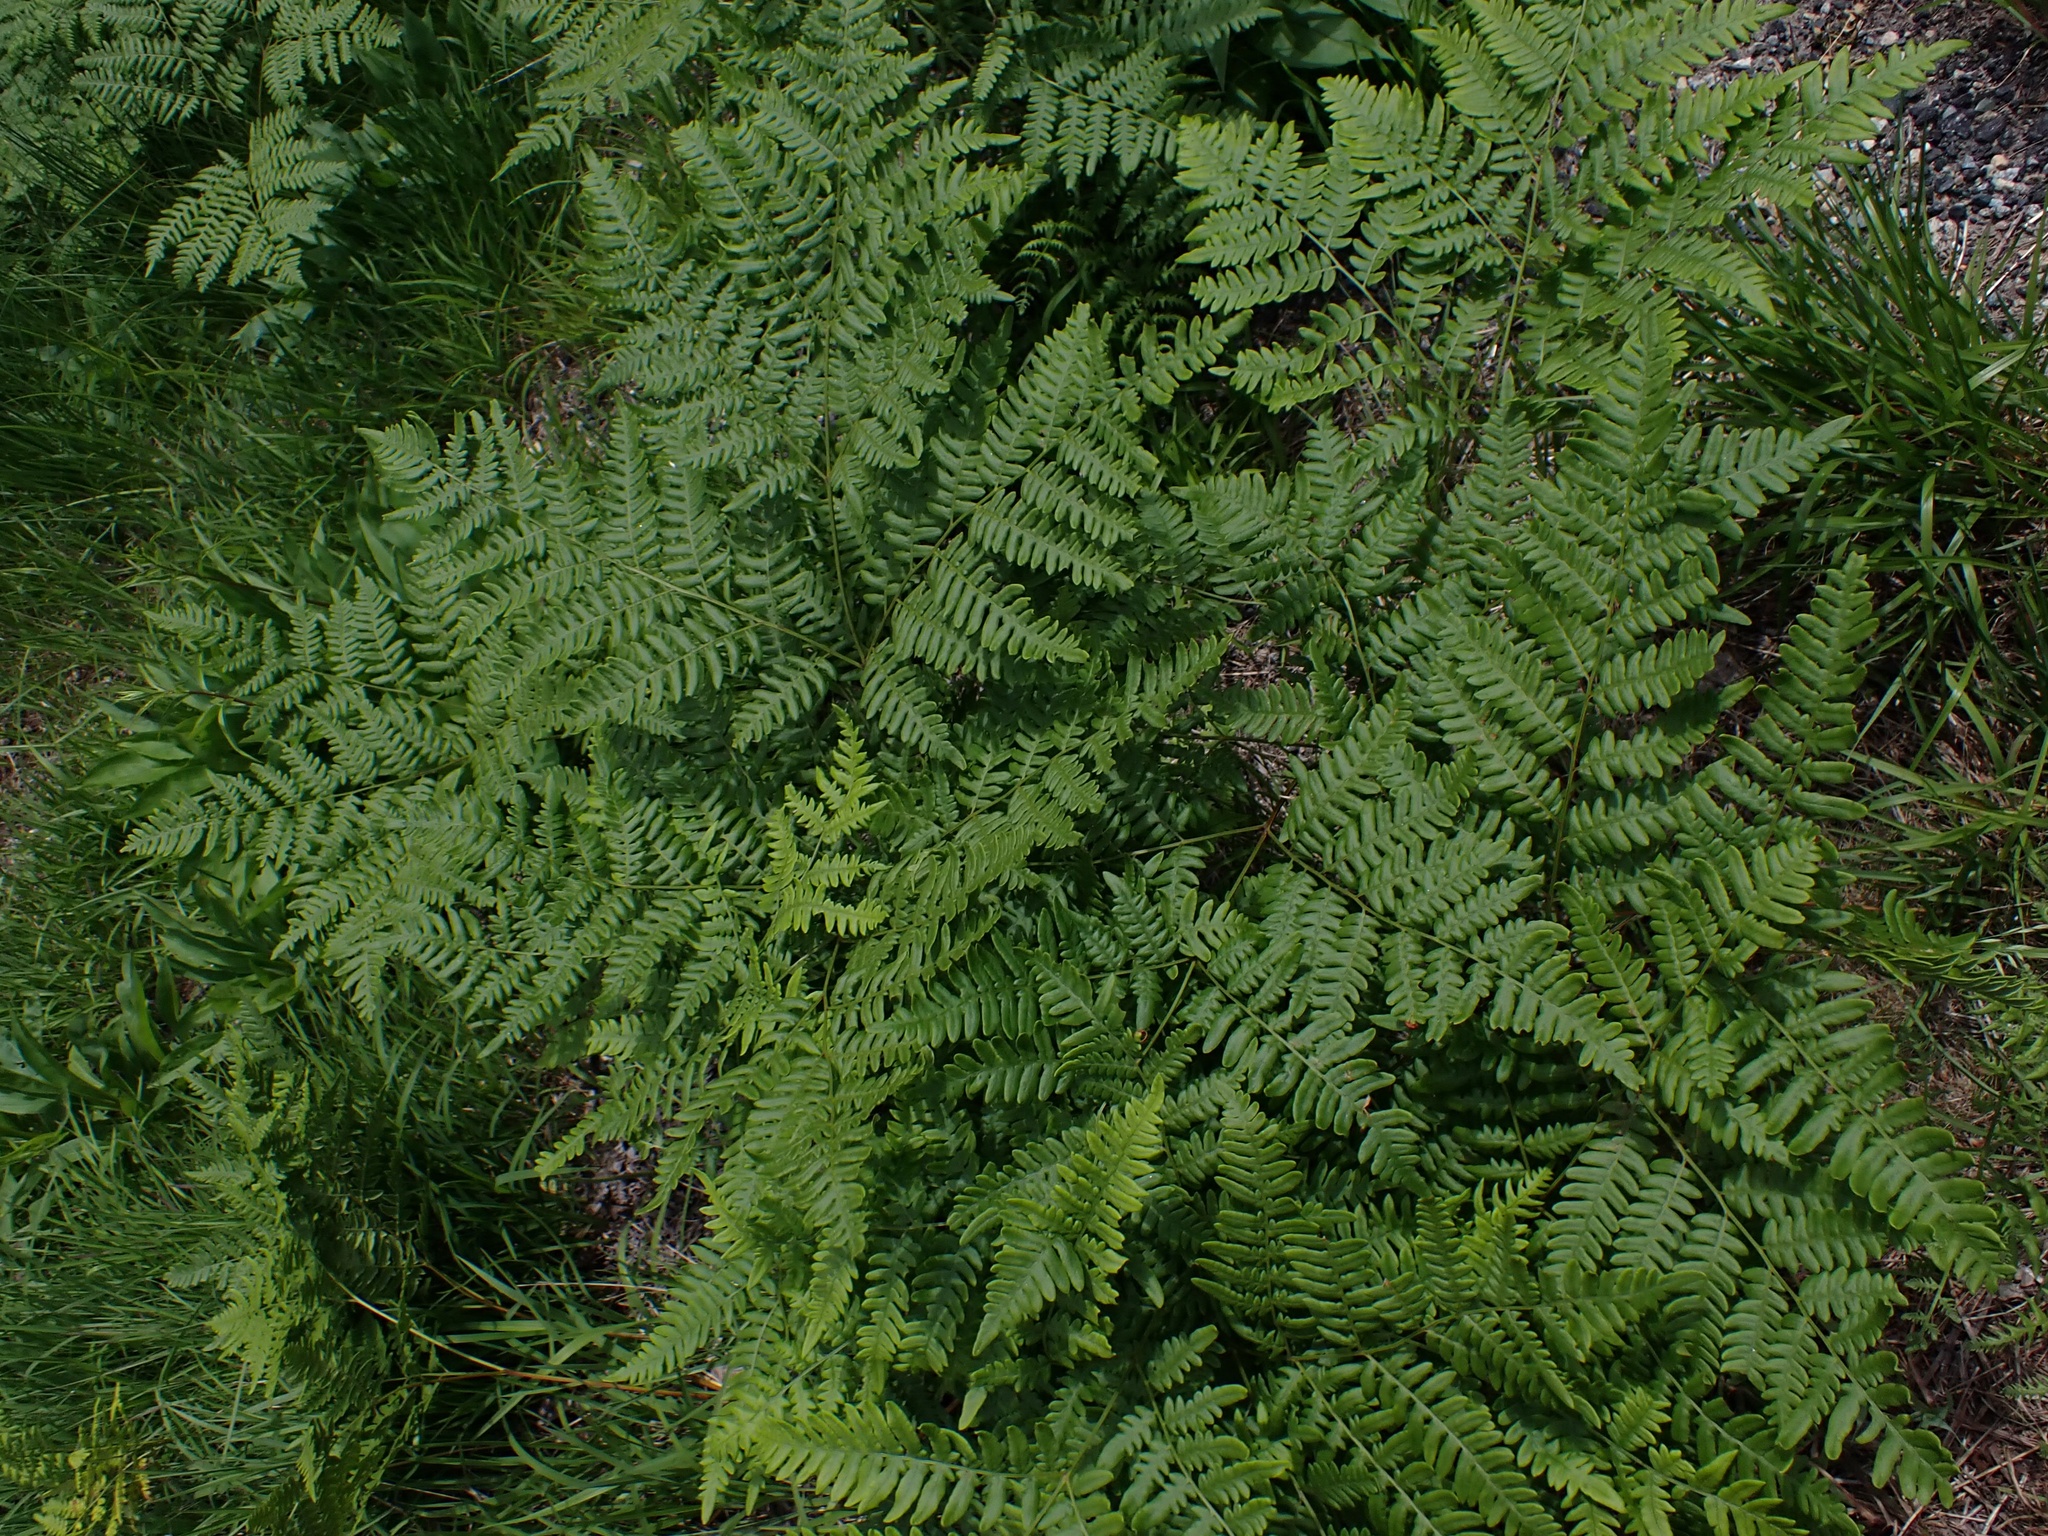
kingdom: Plantae
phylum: Tracheophyta
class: Polypodiopsida
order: Polypodiales
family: Dennstaedtiaceae
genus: Pteridium
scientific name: Pteridium aquilinum
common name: Bracken
